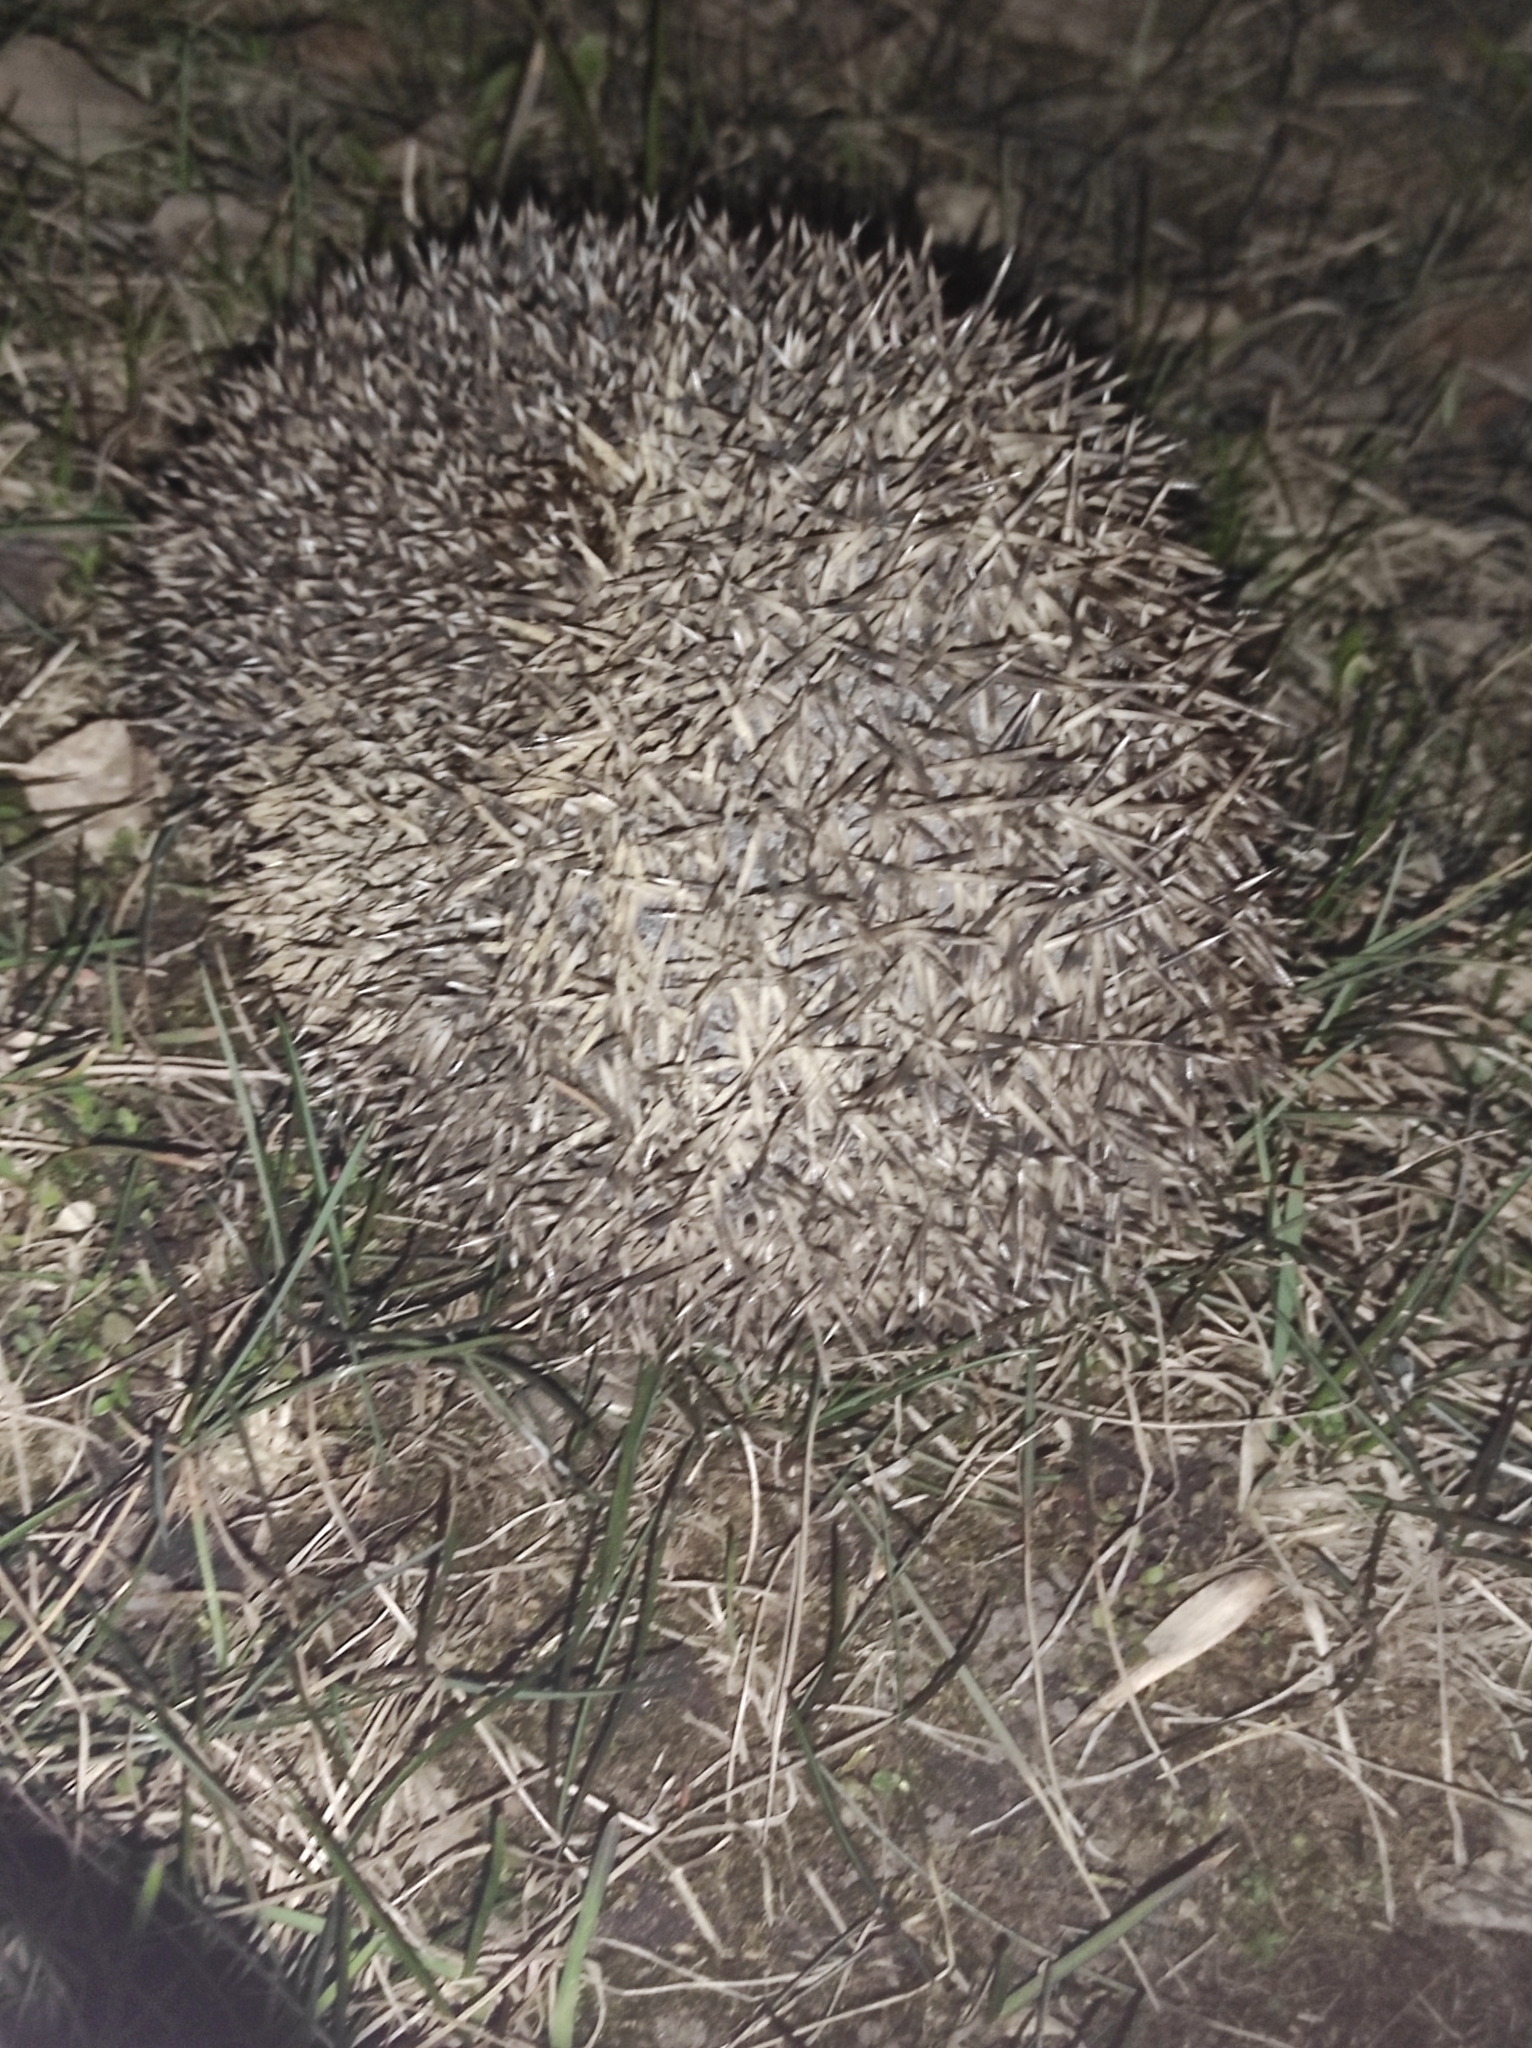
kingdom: Animalia
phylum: Chordata
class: Mammalia
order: Erinaceomorpha
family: Erinaceidae
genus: Erinaceus
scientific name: Erinaceus roumanicus
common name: Northern white-breasted hedgehog
